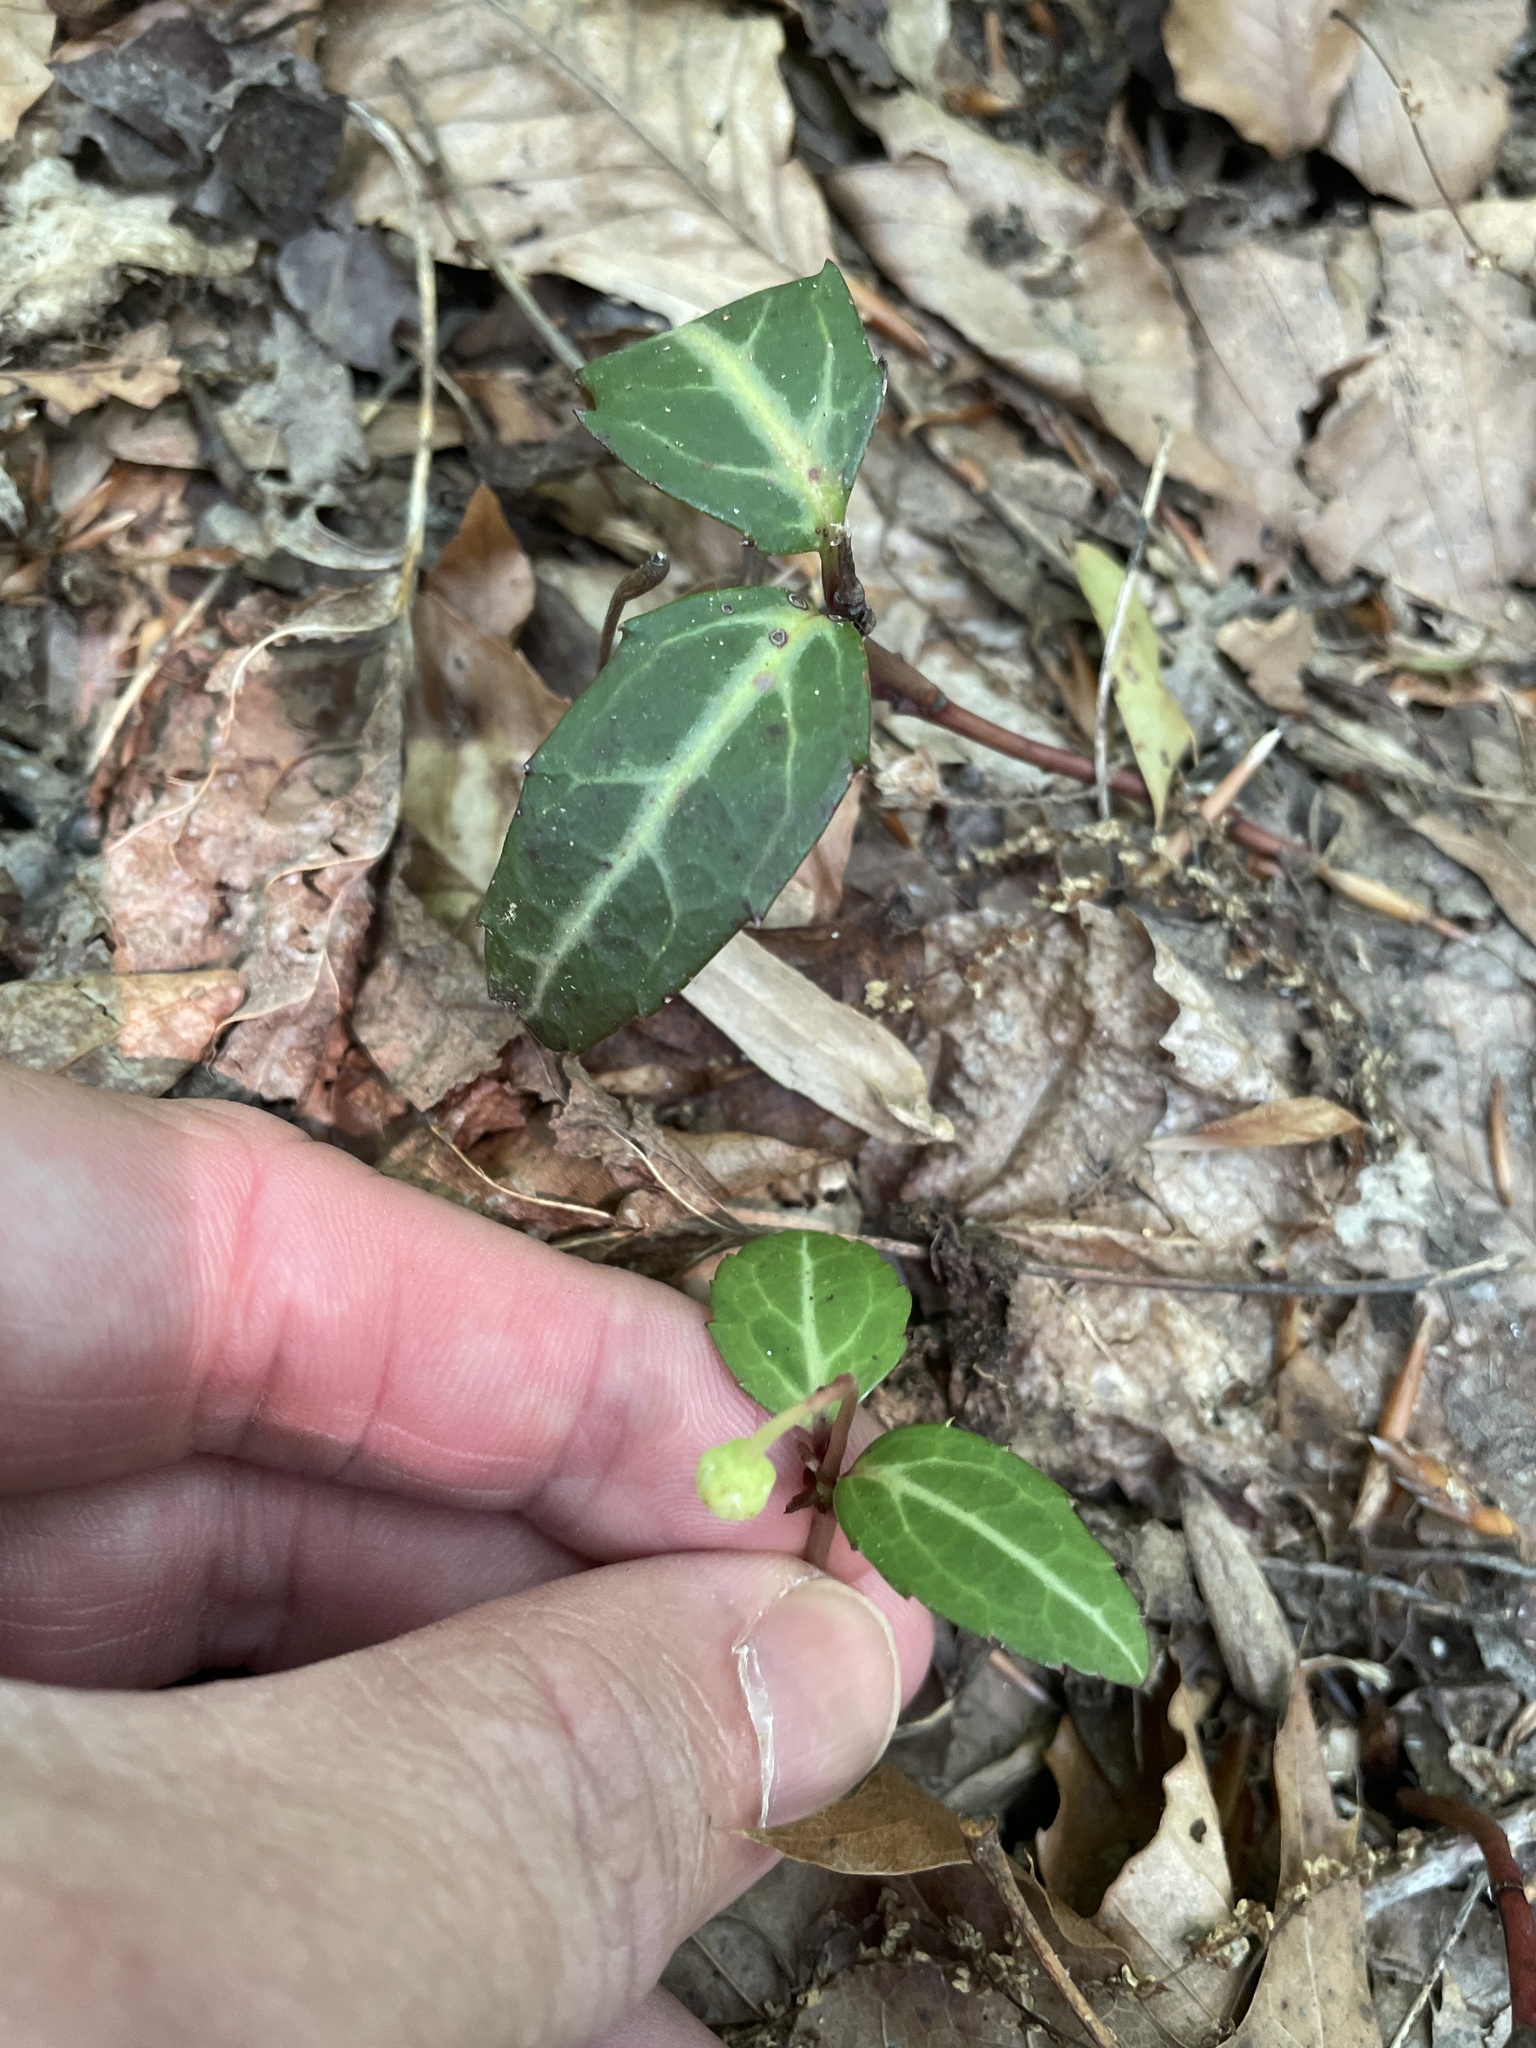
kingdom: Plantae
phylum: Tracheophyta
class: Magnoliopsida
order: Ericales
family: Ericaceae
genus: Chimaphila
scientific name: Chimaphila maculata
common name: Spotted pipsissewa
